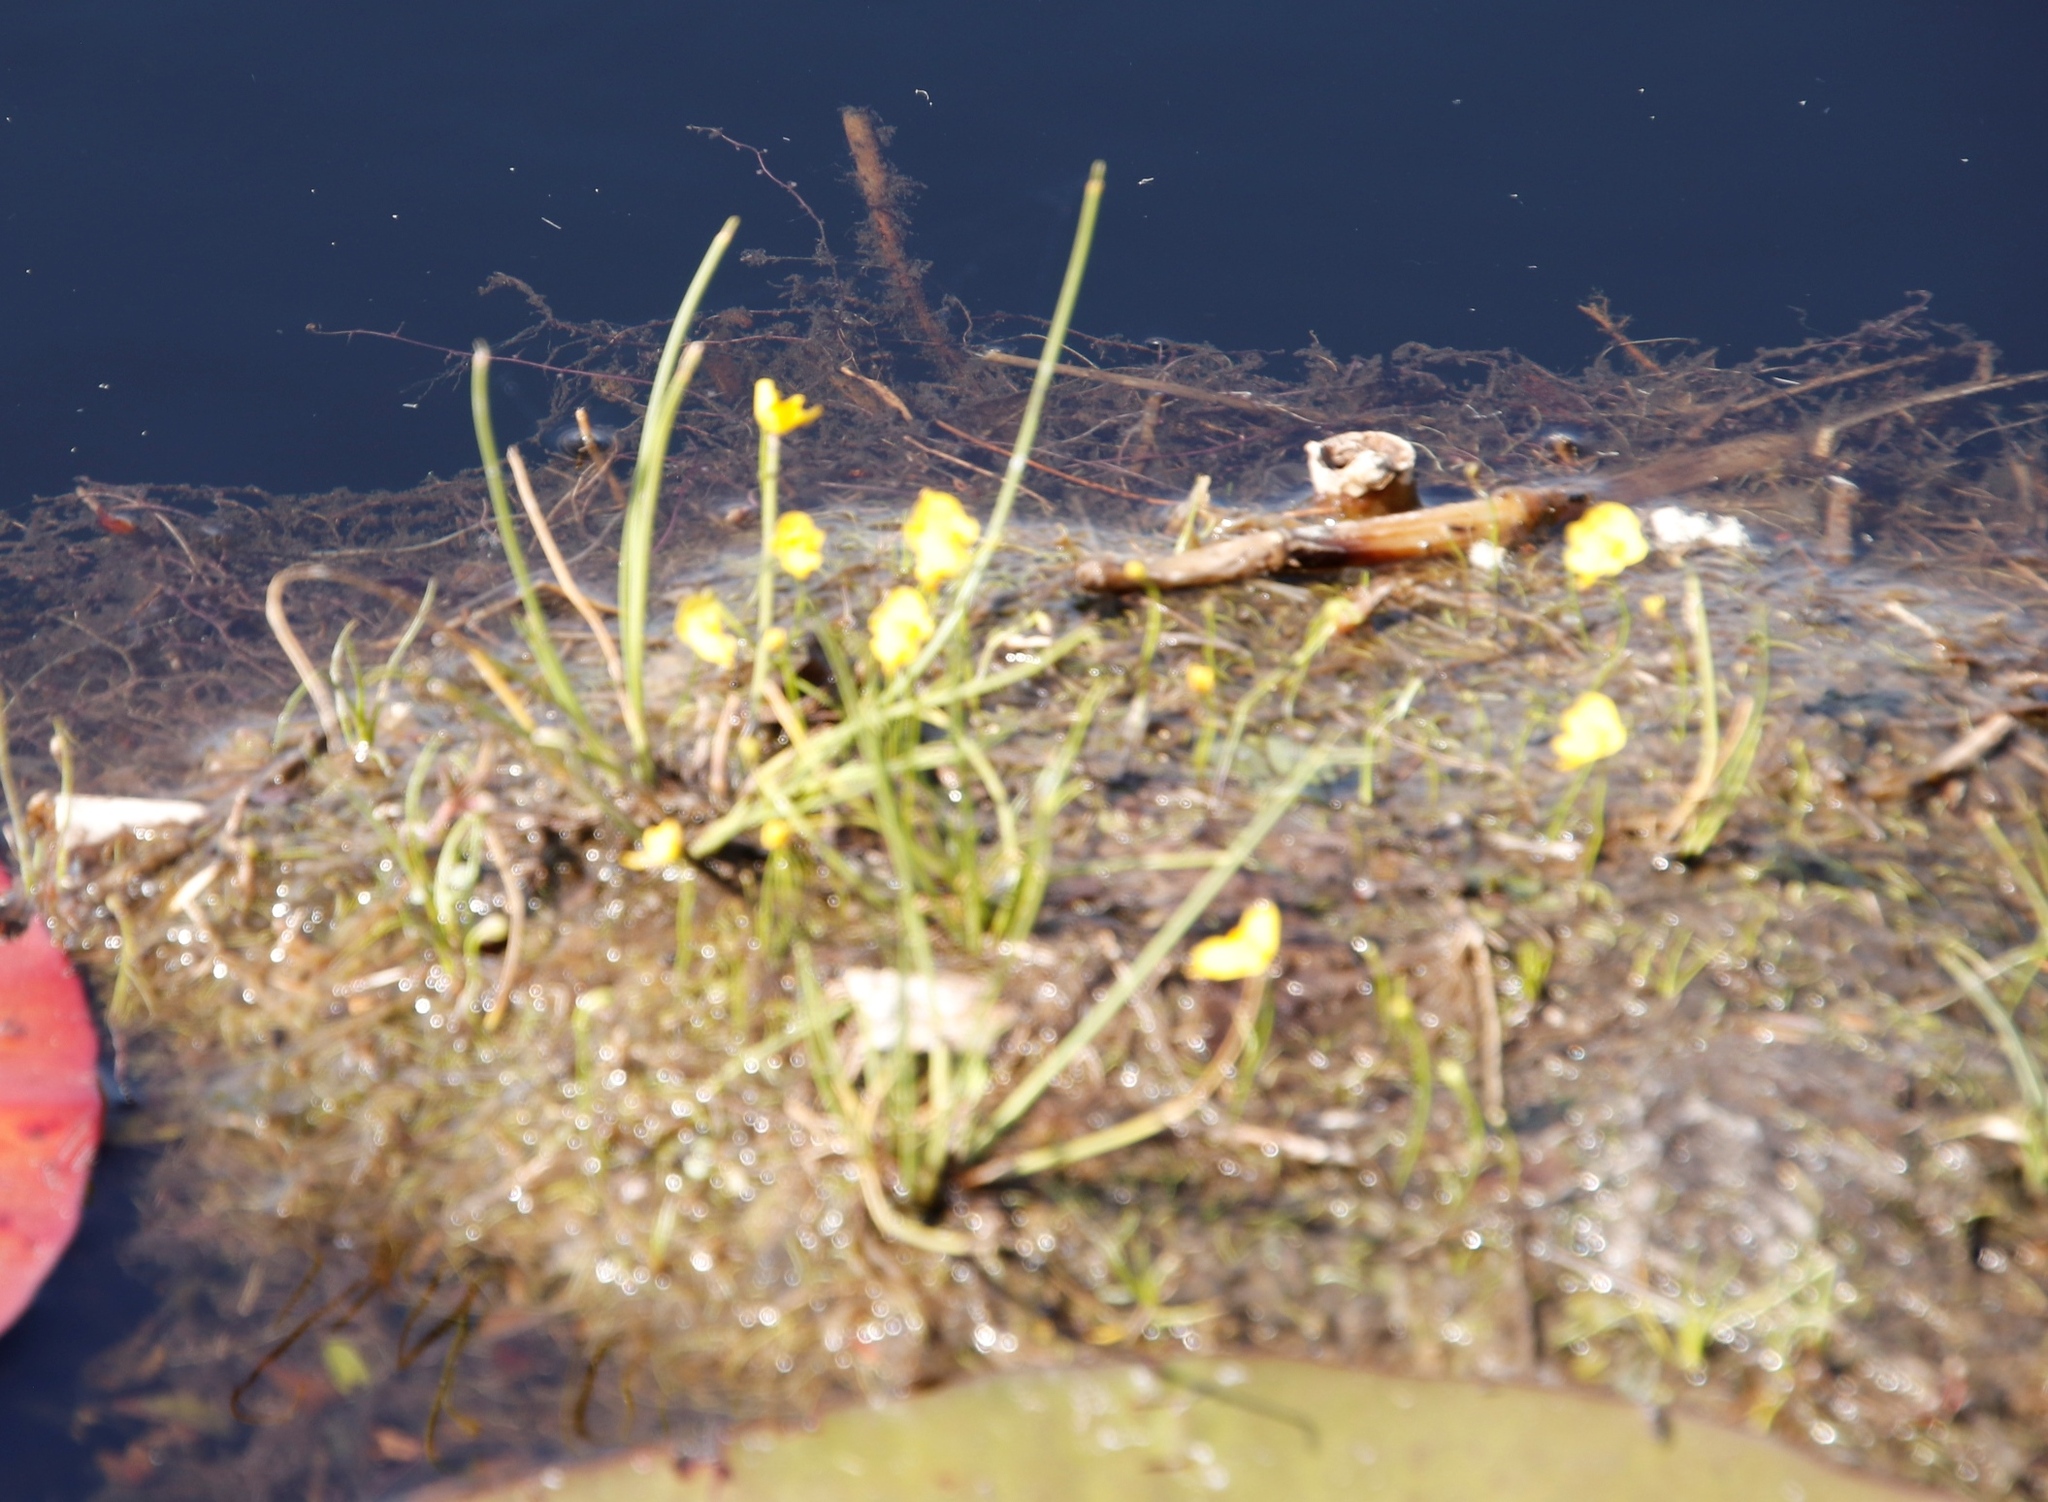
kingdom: Plantae
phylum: Tracheophyta
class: Magnoliopsida
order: Lamiales
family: Lentibulariaceae
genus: Utricularia
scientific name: Utricularia gibba
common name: Humped bladderwort
